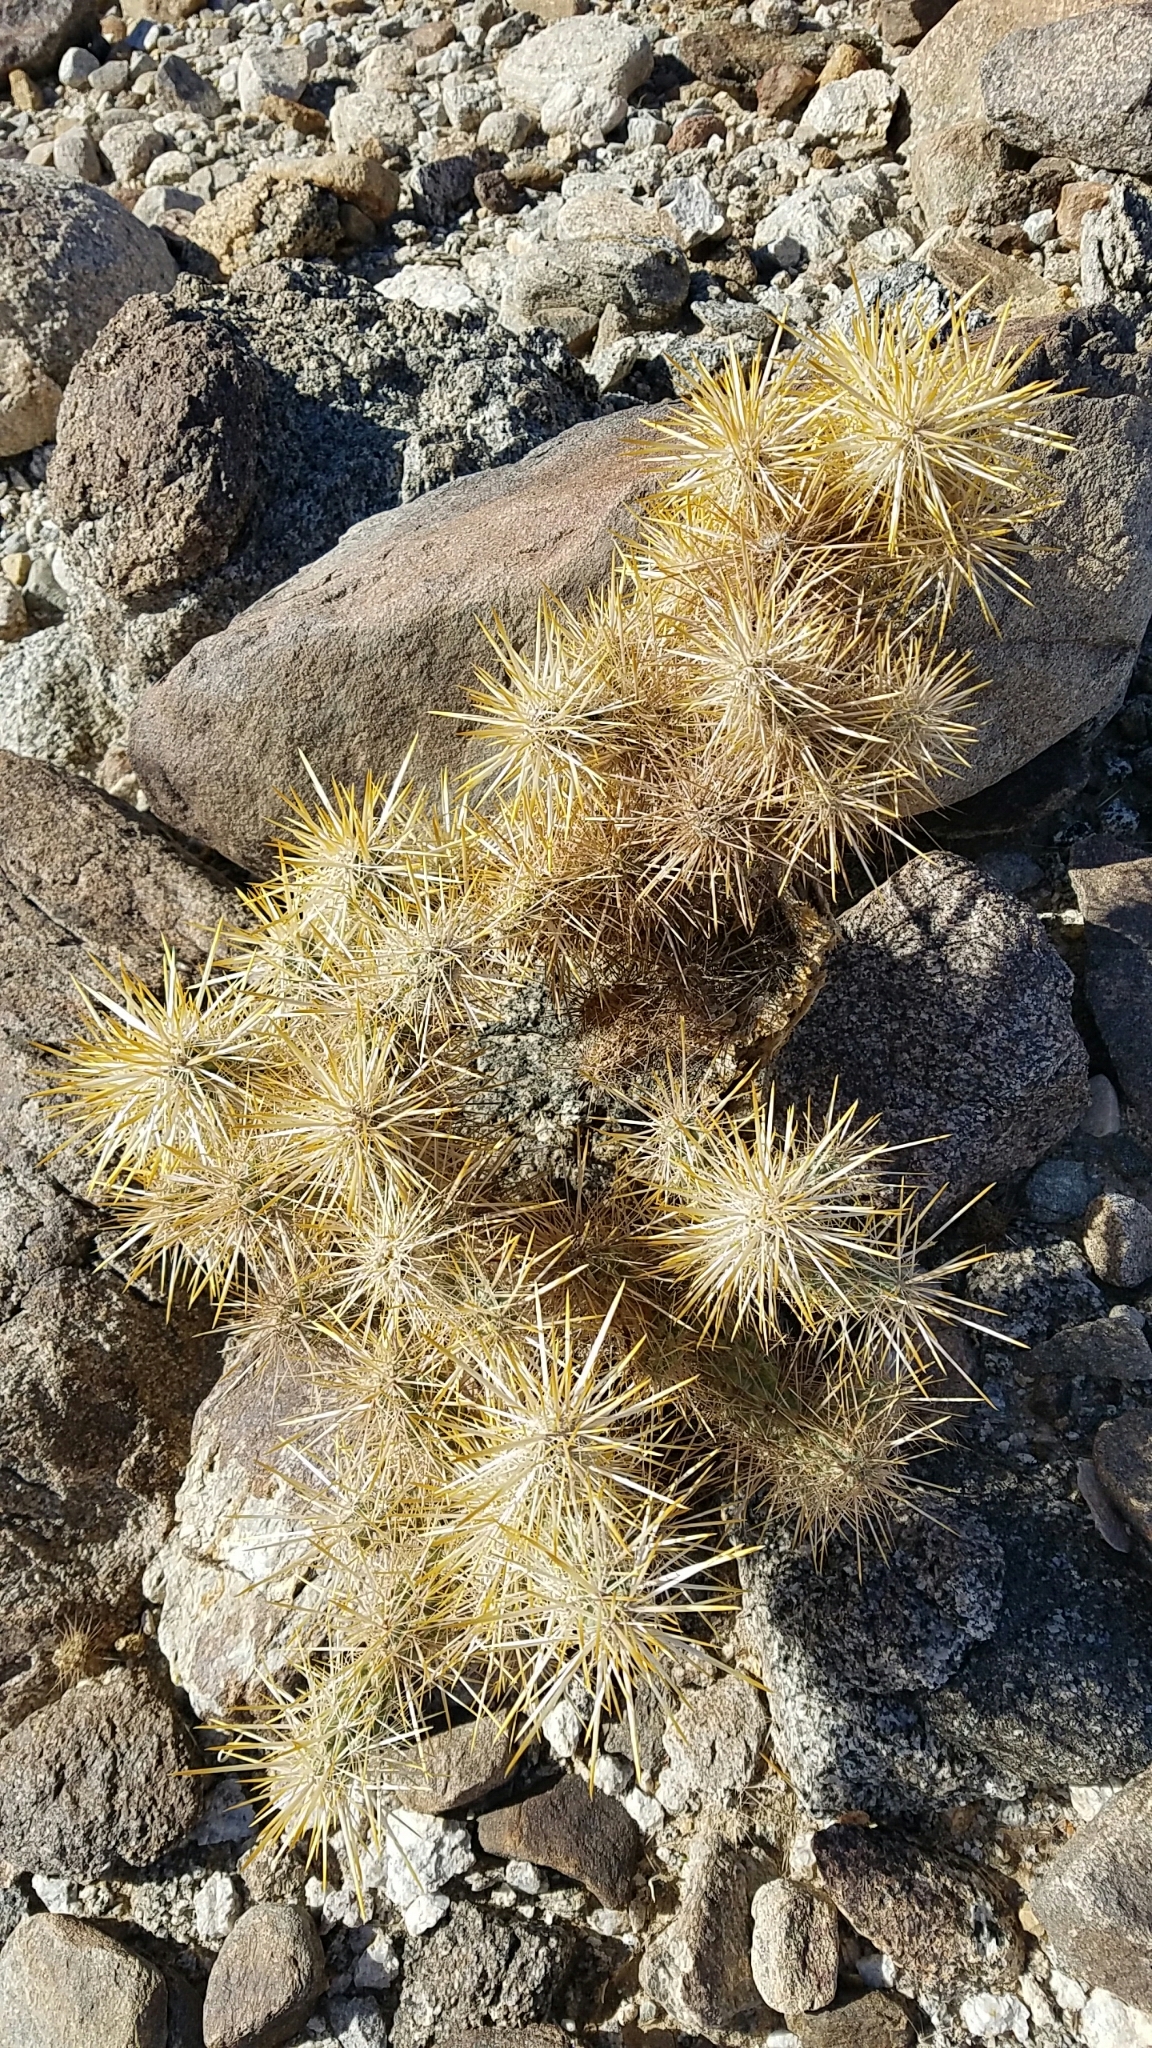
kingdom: Plantae
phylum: Tracheophyta
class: Magnoliopsida
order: Caryophyllales
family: Cactaceae
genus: Cylindropuntia
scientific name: Cylindropuntia echinocarpa
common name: Ground cholla
